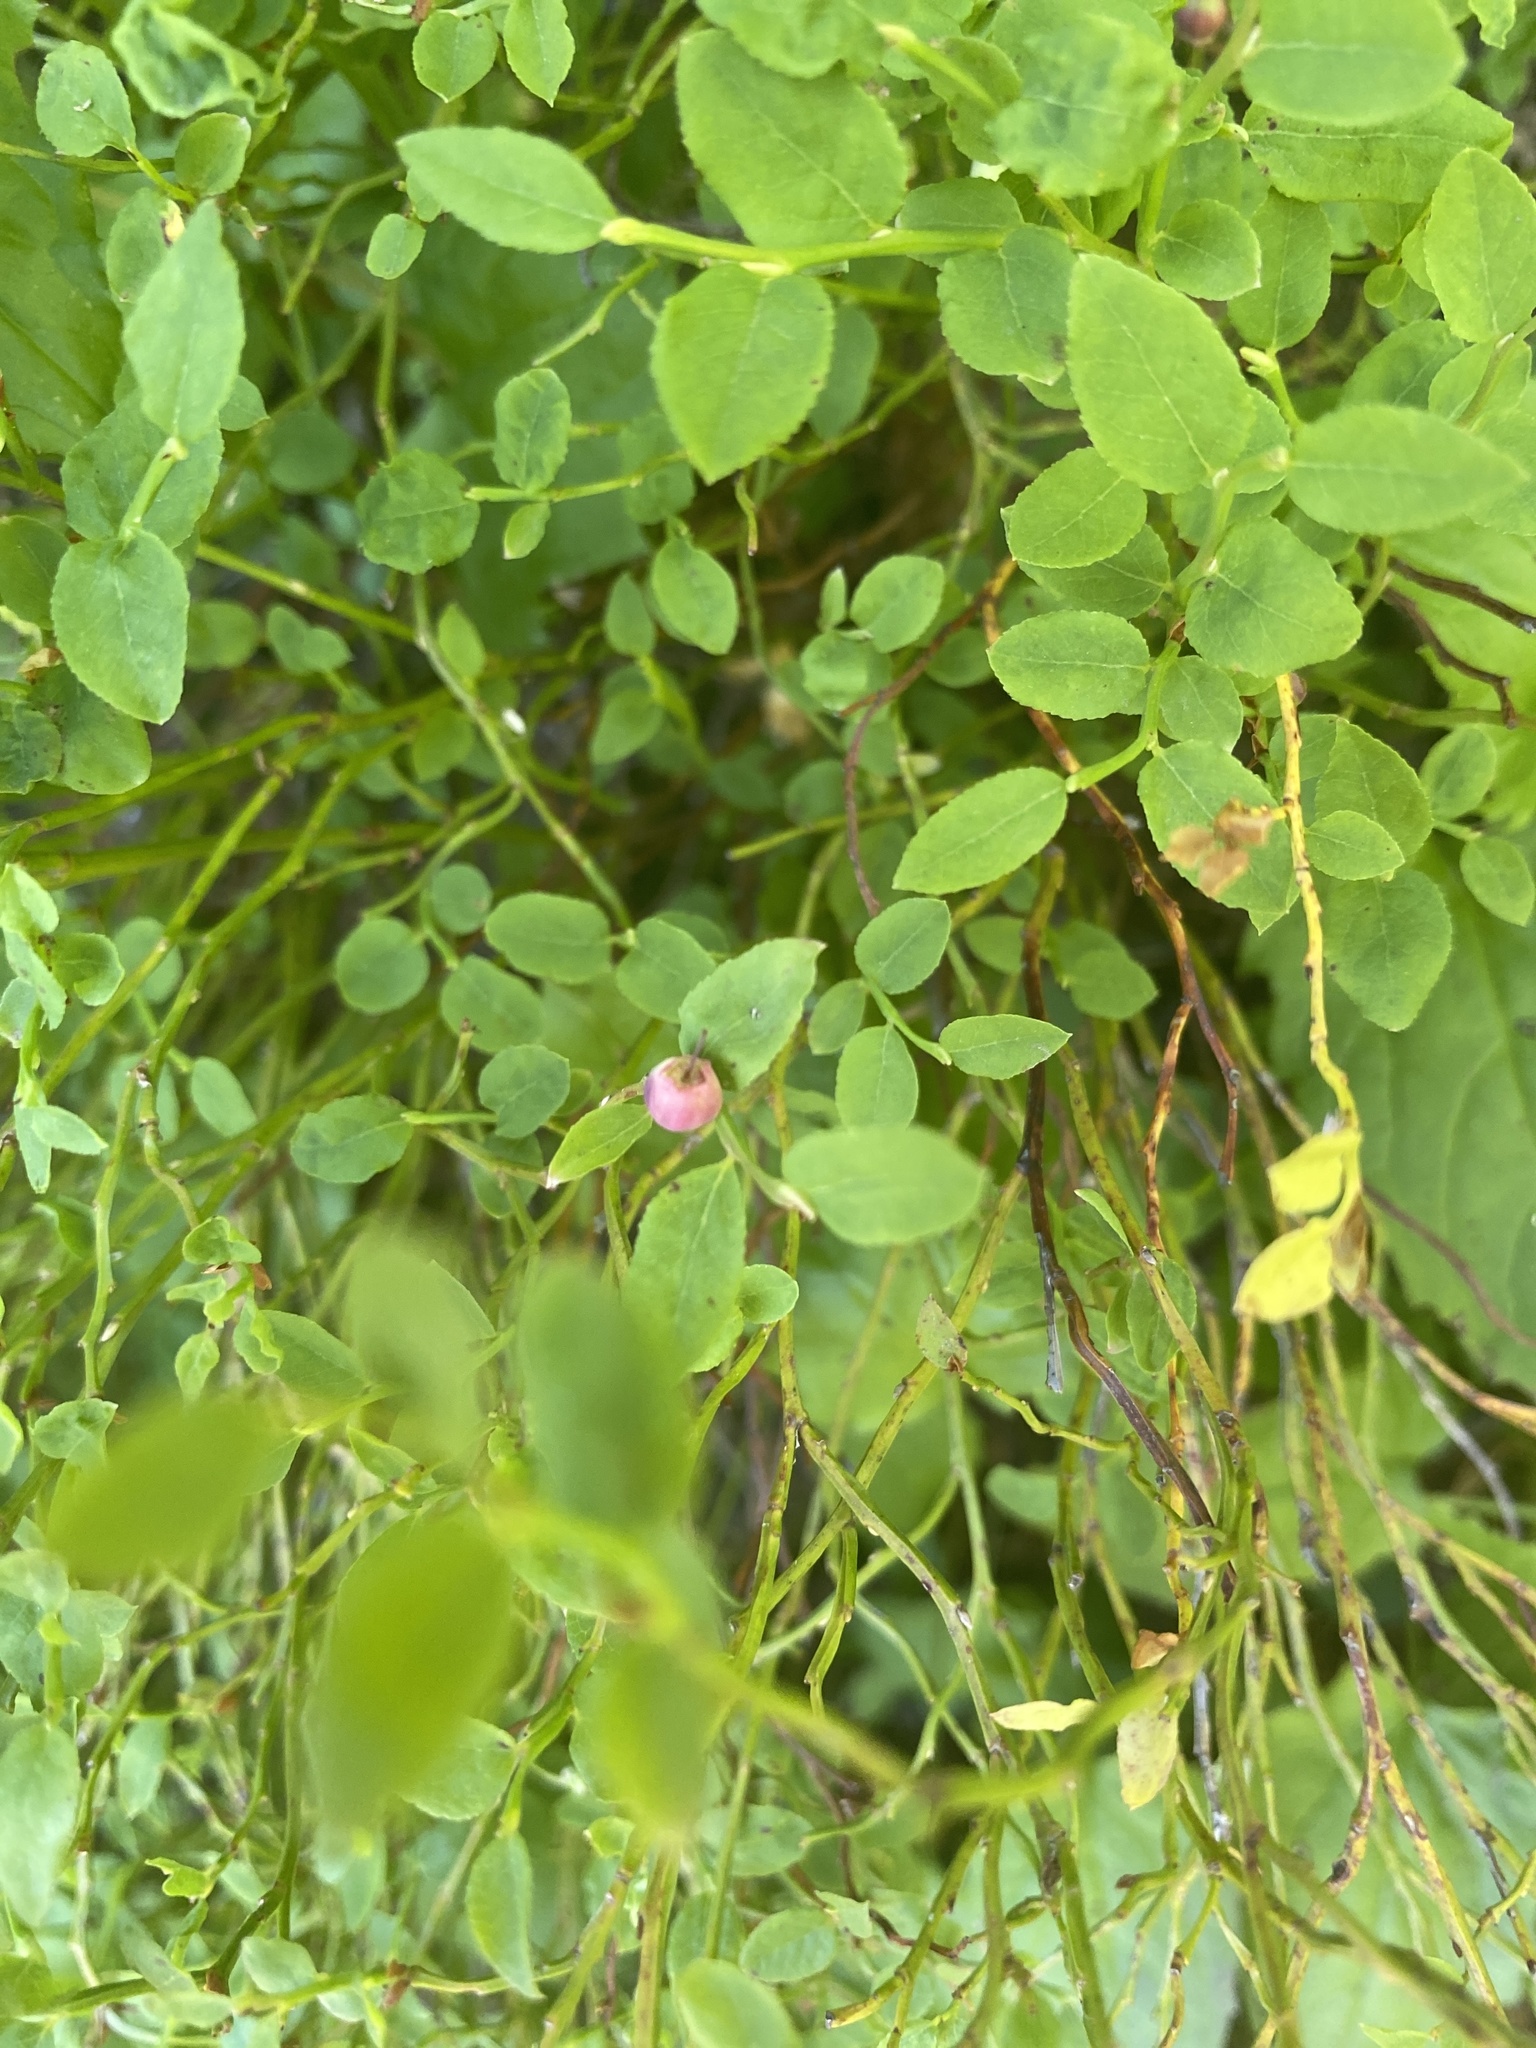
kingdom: Plantae
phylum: Tracheophyta
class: Magnoliopsida
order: Ericales
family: Ericaceae
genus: Vaccinium
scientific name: Vaccinium myrtillus
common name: Bilberry
